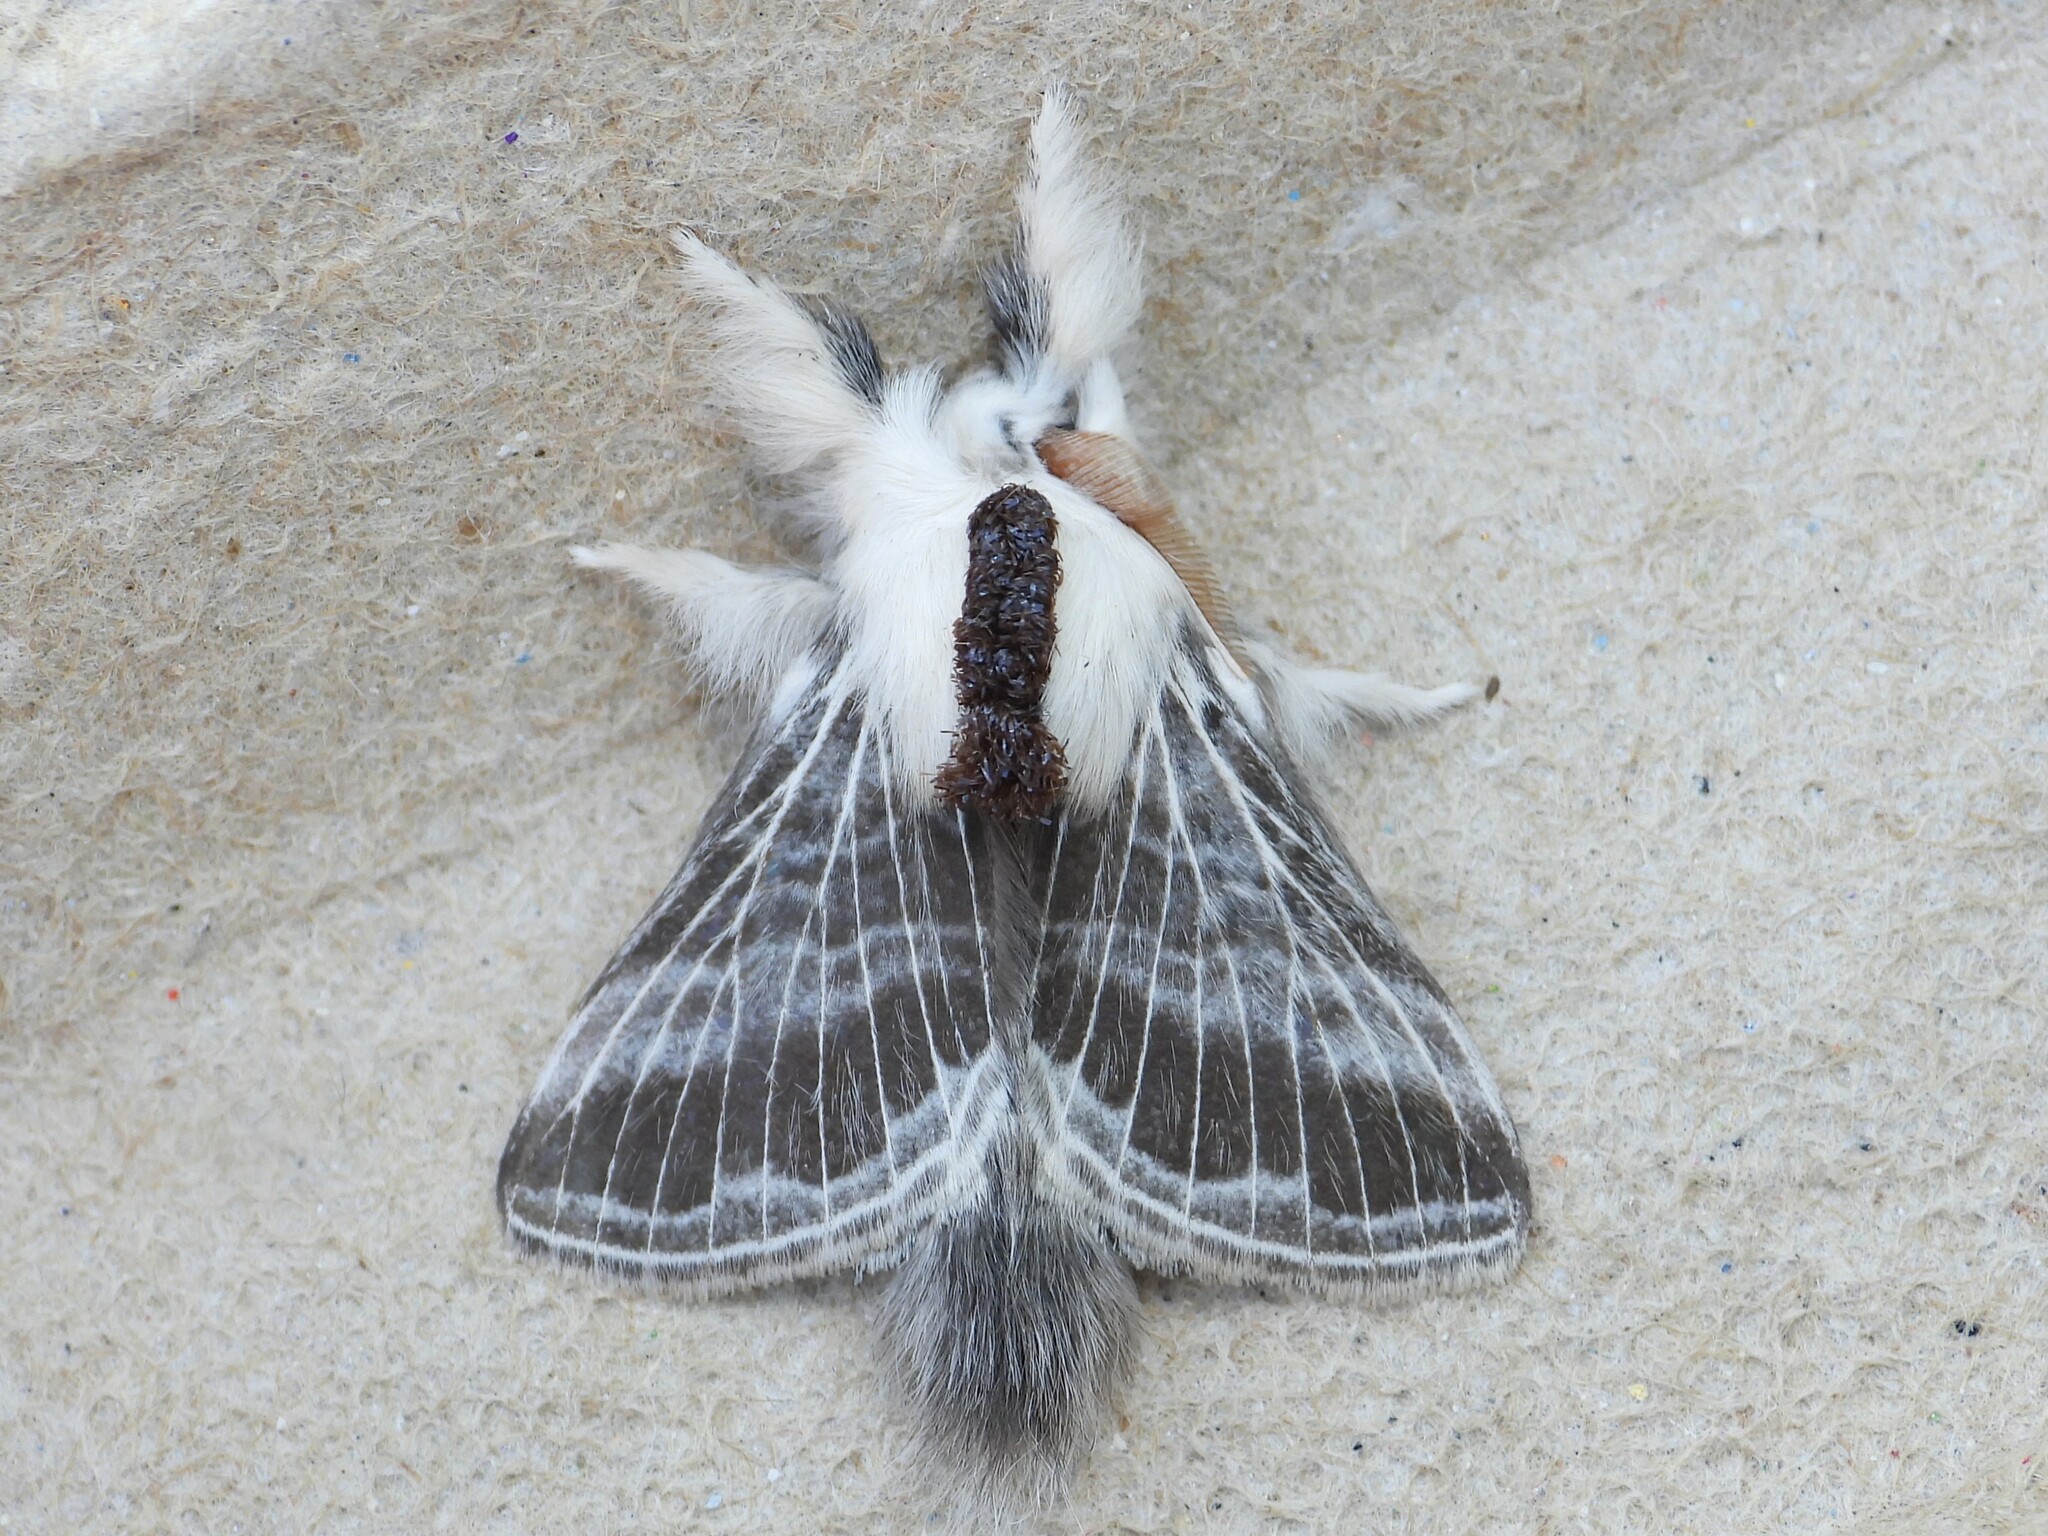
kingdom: Animalia
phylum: Arthropoda
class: Insecta
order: Lepidoptera
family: Lasiocampidae
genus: Tolype
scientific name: Tolype velleda
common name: Large tolype moth
